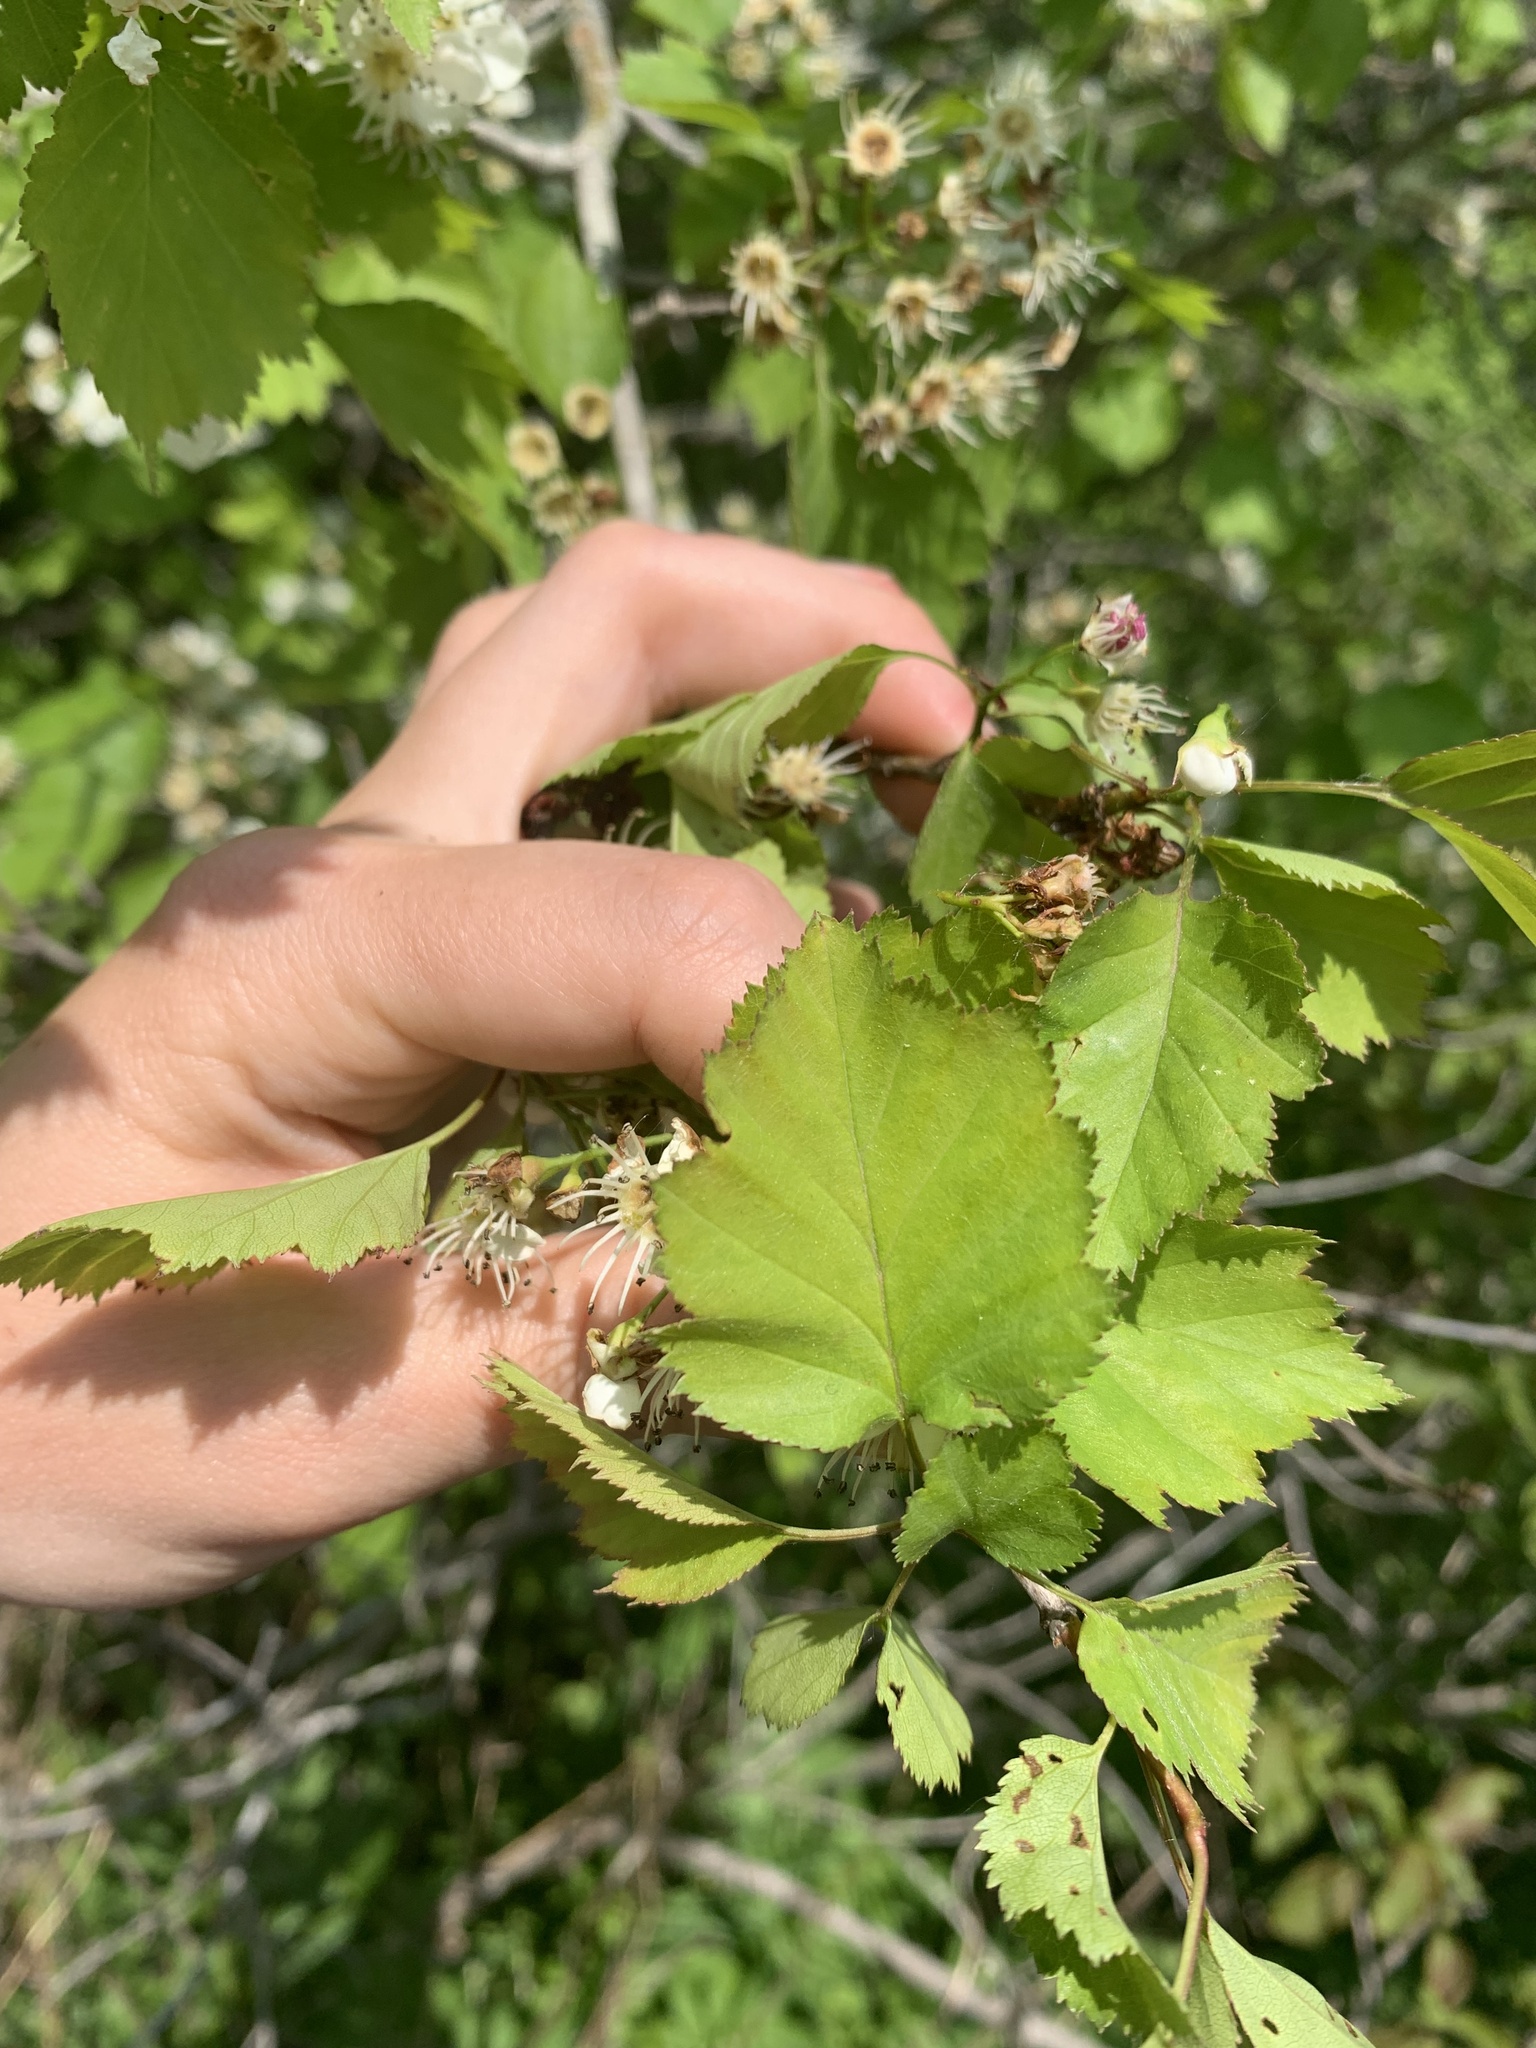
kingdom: Plantae
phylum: Tracheophyta
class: Magnoliopsida
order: Rosales
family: Rosaceae
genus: Crataegus
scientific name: Crataegus schuettei
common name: Schuette's hawthorn
